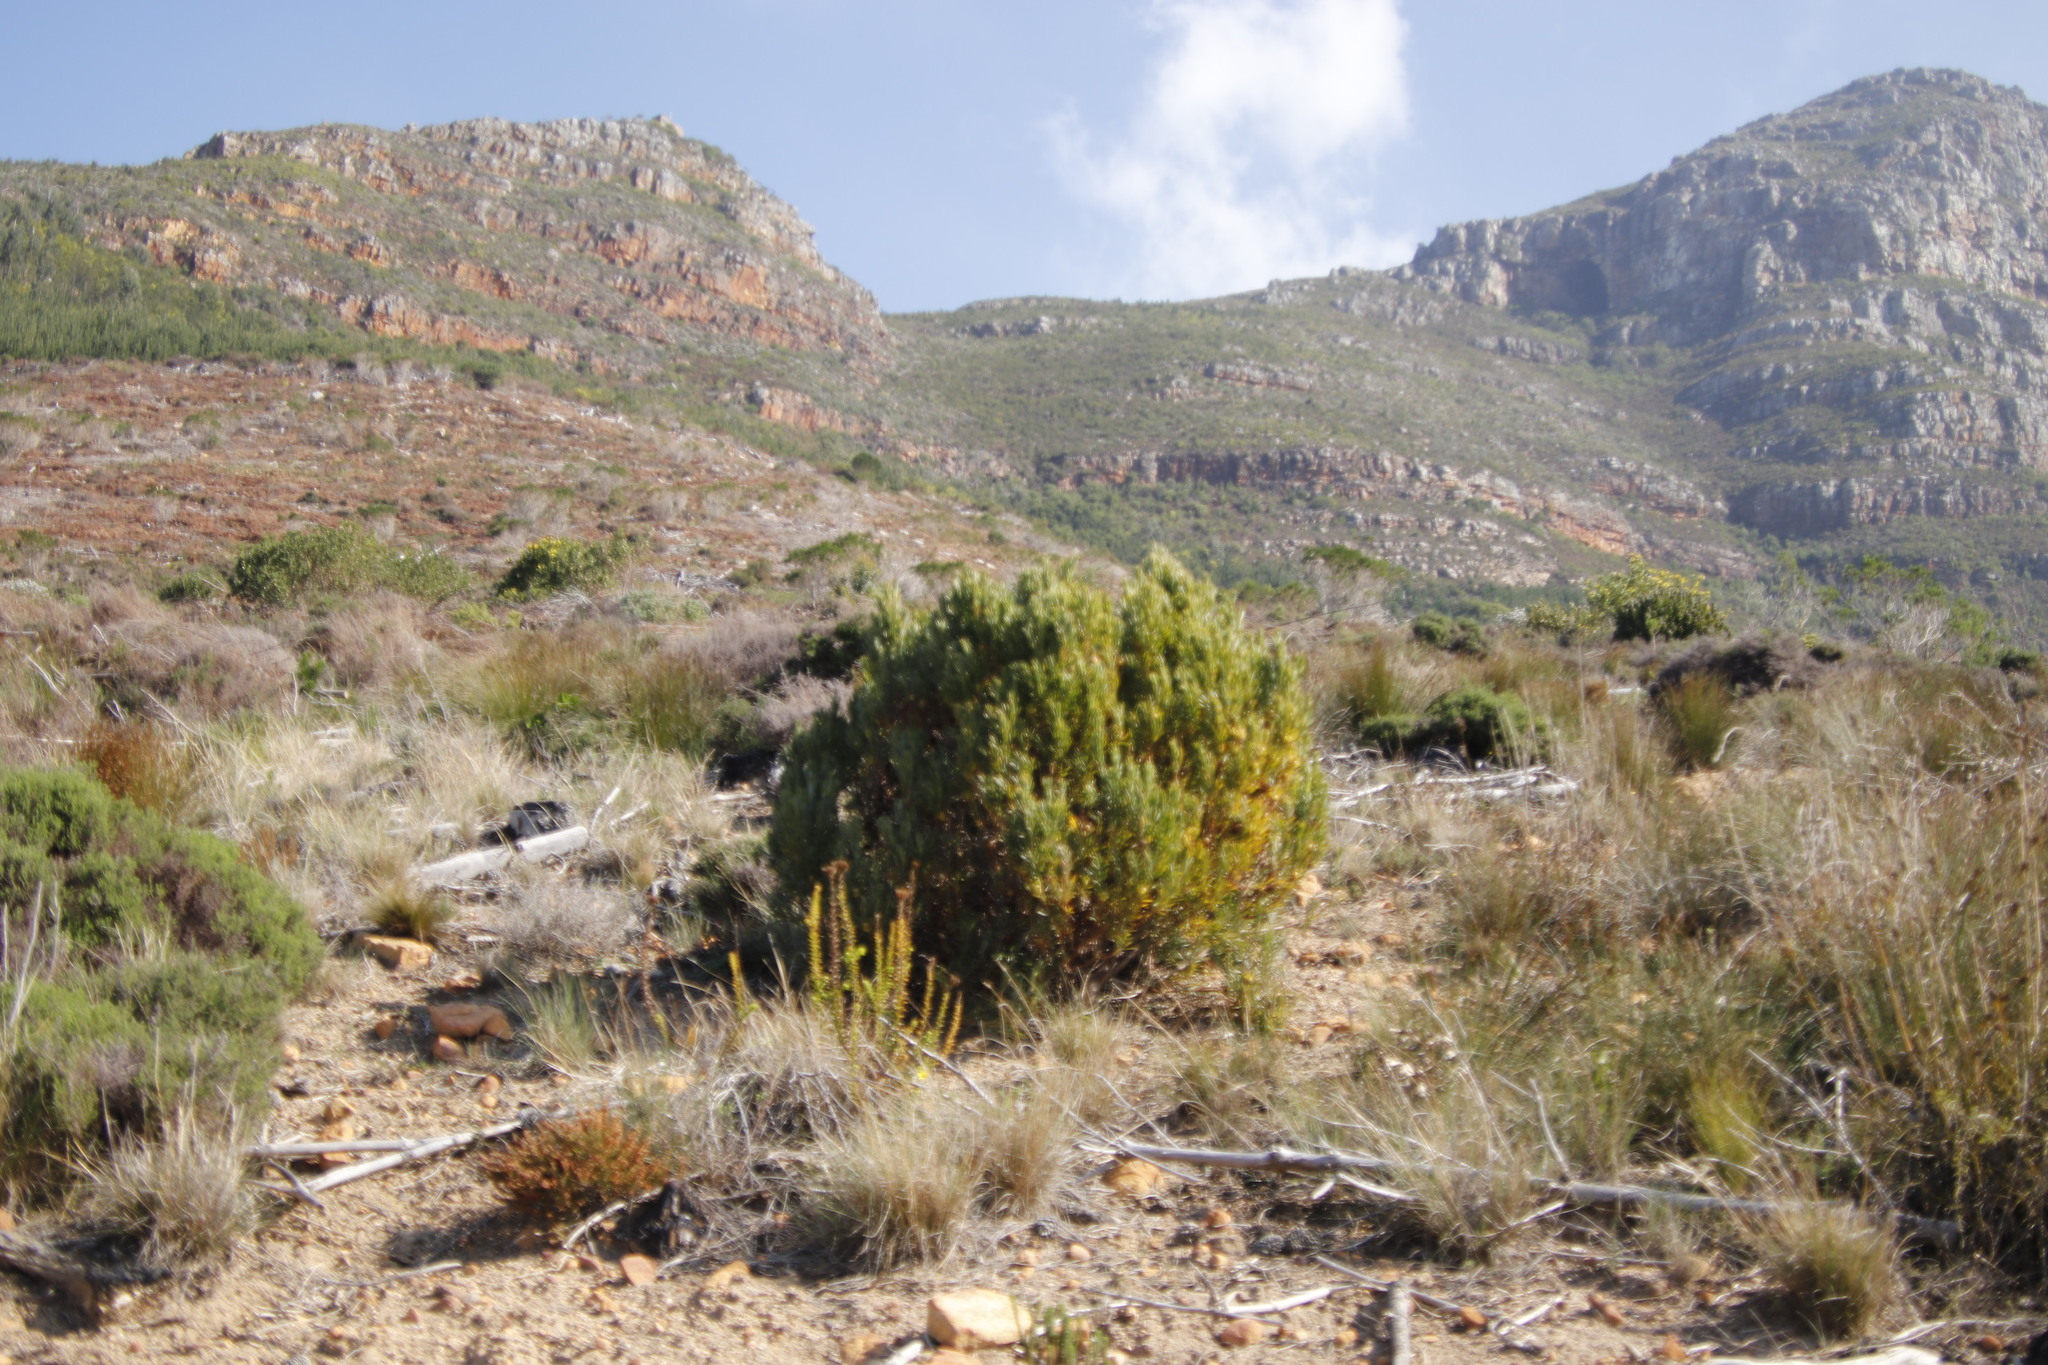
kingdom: Plantae
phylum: Tracheophyta
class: Magnoliopsida
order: Proteales
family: Proteaceae
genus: Leucadendron
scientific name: Leucadendron xanthoconus
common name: Sickle-leaf conebush
